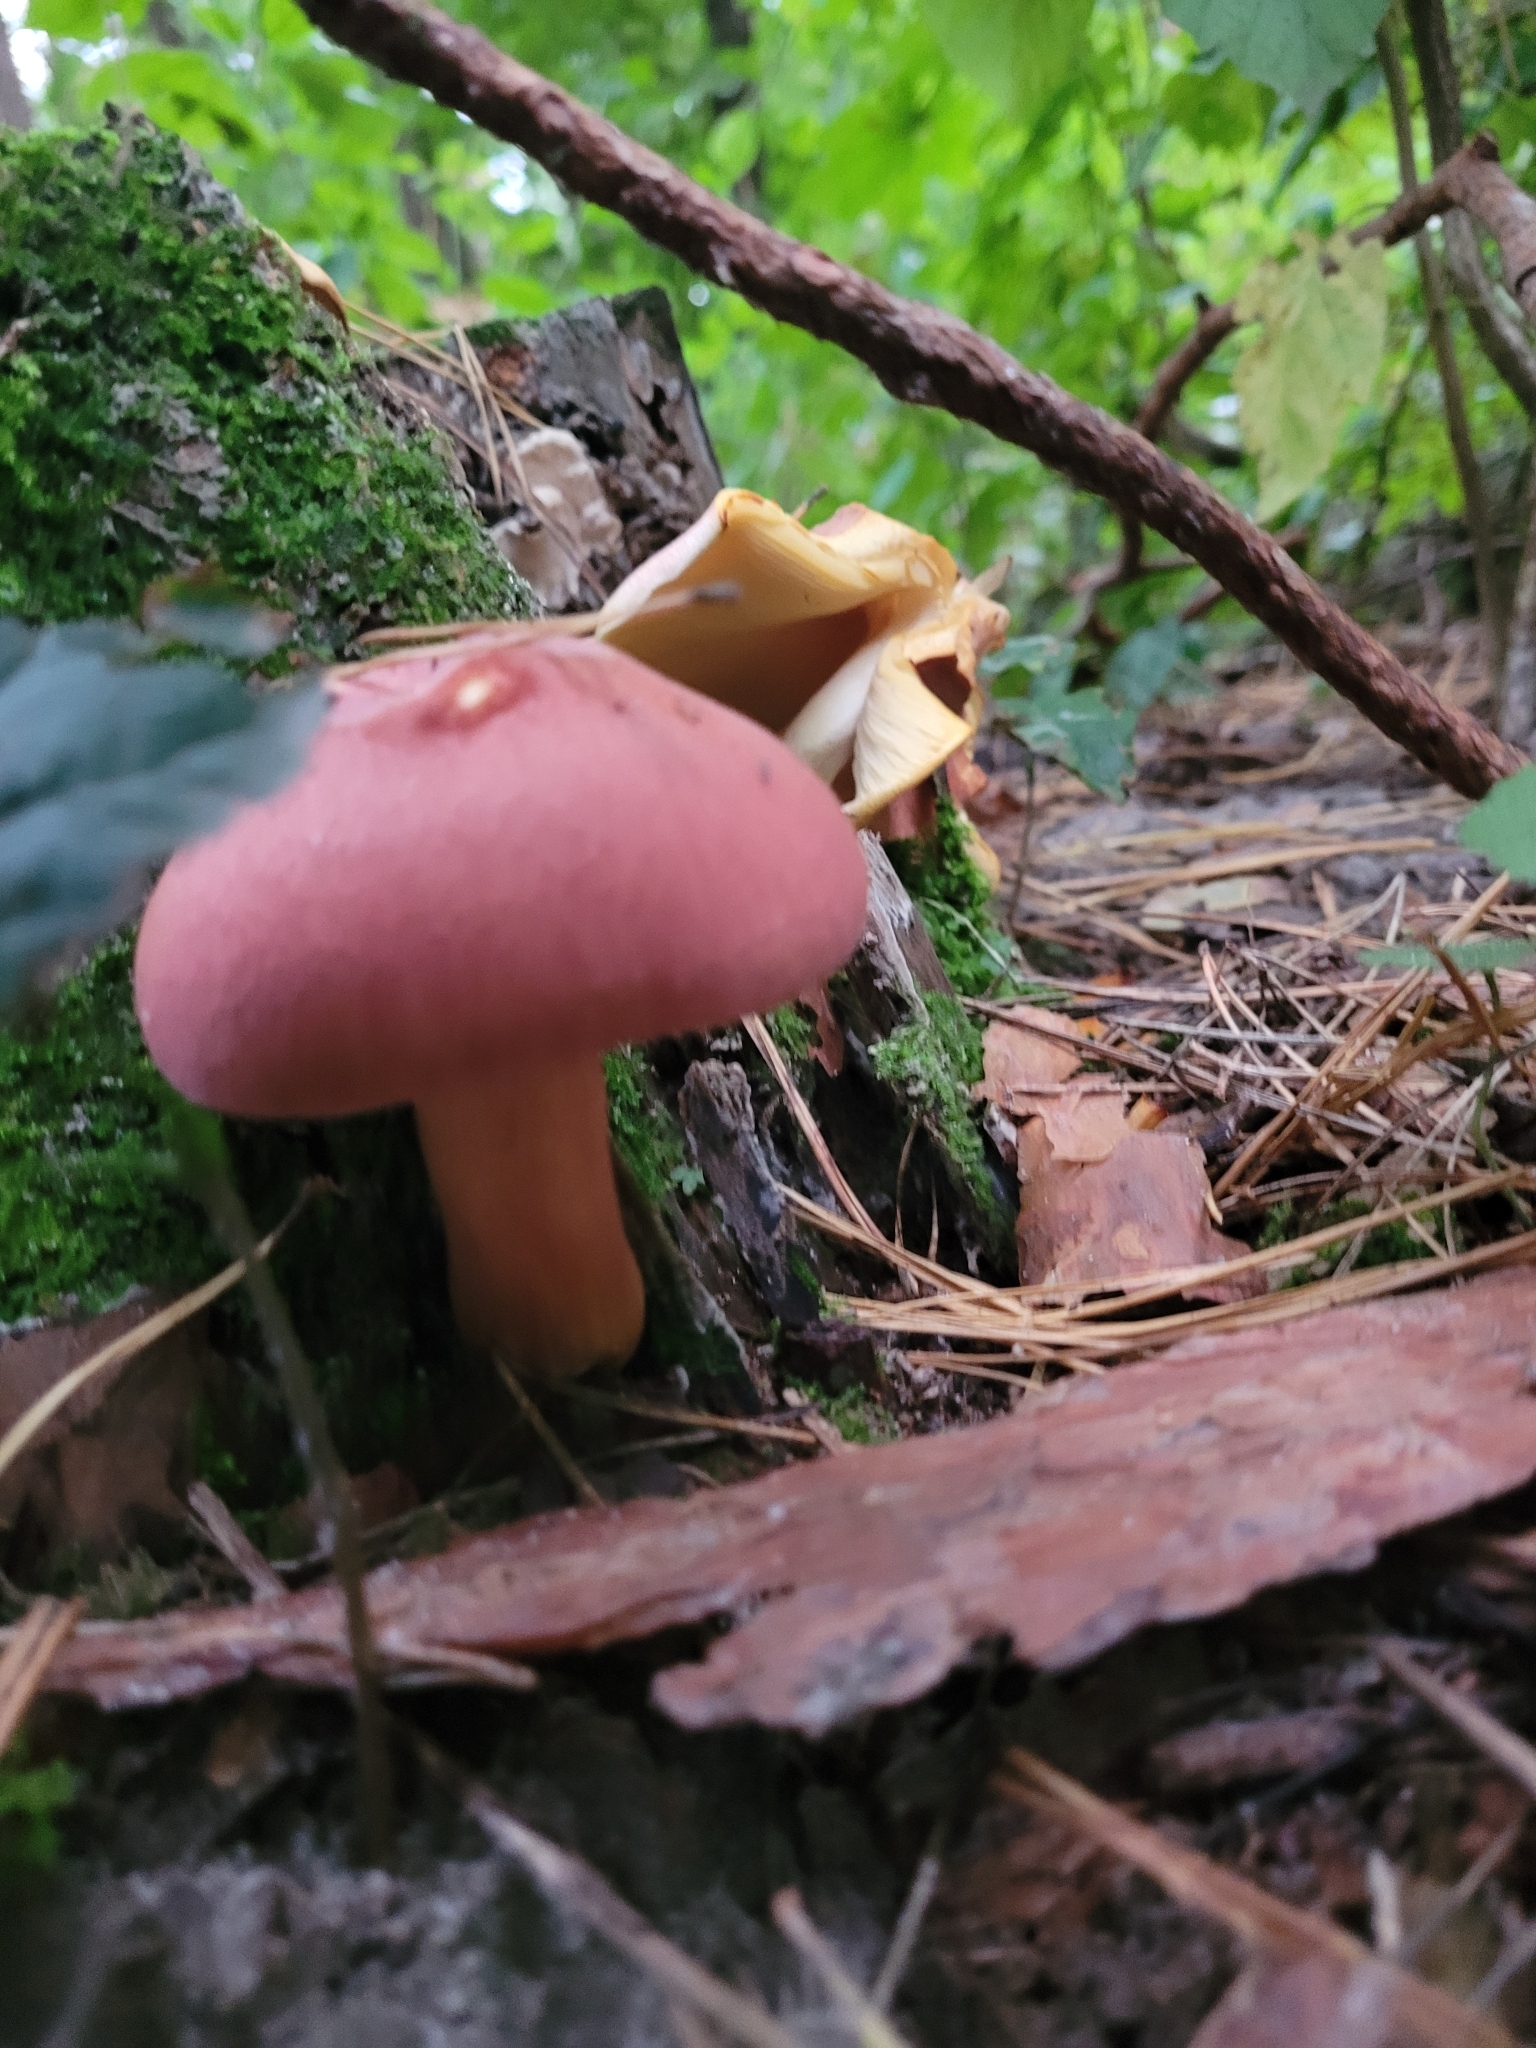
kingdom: Fungi
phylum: Basidiomycota
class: Agaricomycetes
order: Agaricales
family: Tricholomataceae
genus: Tricholomopsis
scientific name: Tricholomopsis rutilans
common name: Plums and custard
